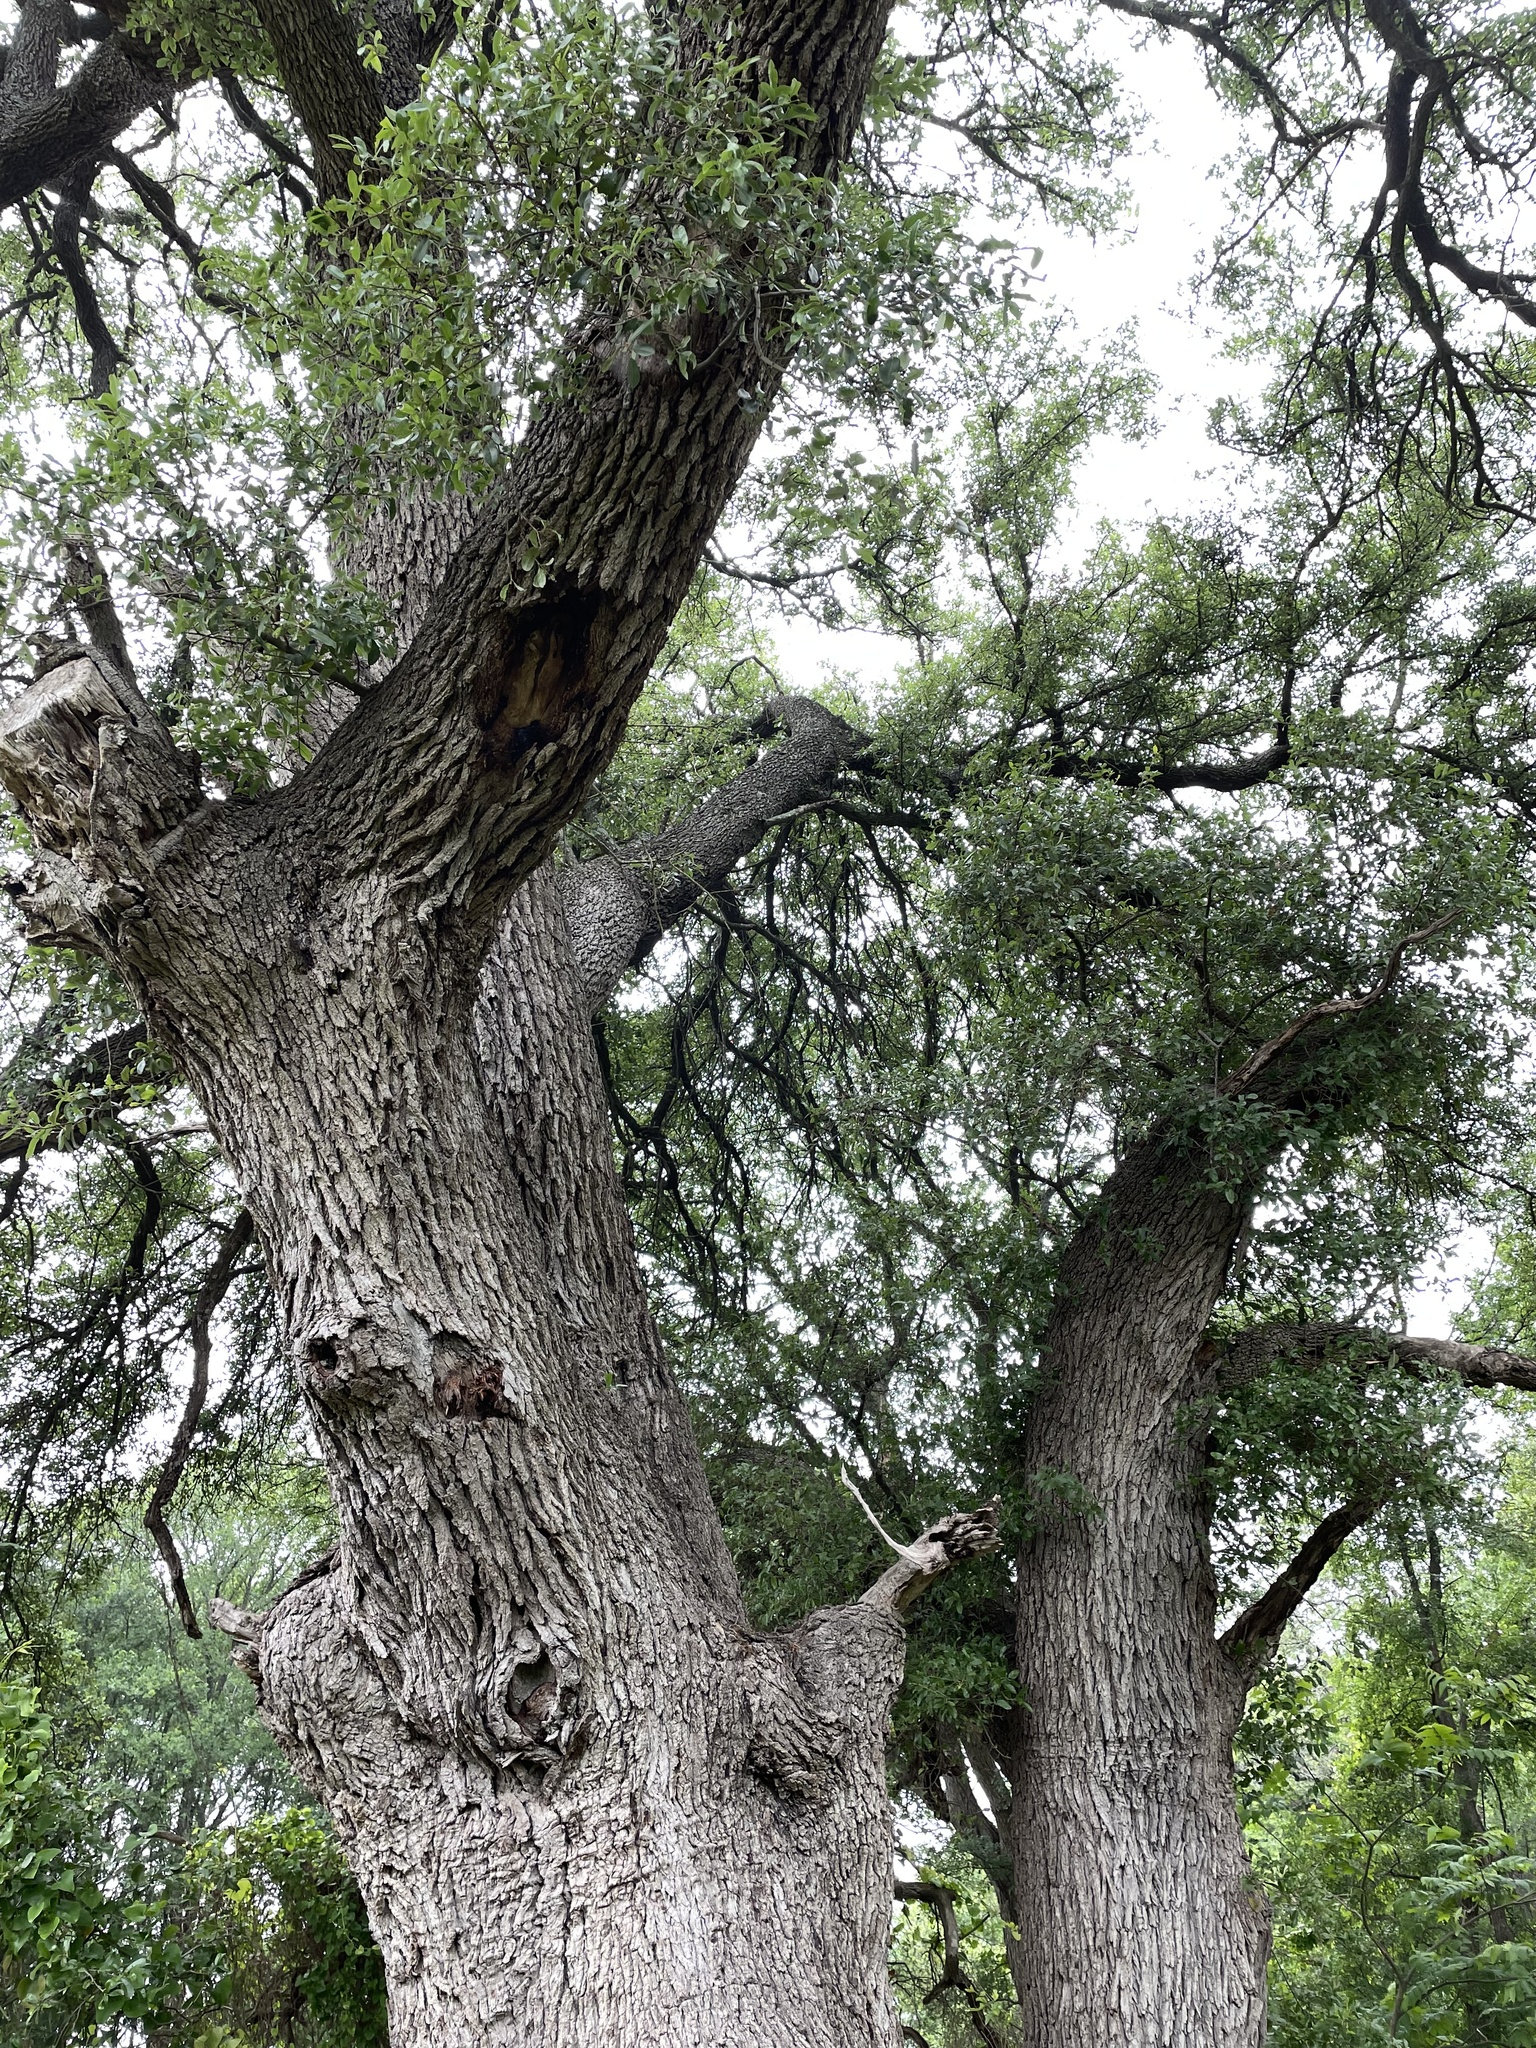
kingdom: Plantae
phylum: Tracheophyta
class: Magnoliopsida
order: Fagales
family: Fagaceae
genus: Quercus
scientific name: Quercus virginiana
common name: Southern live oak
